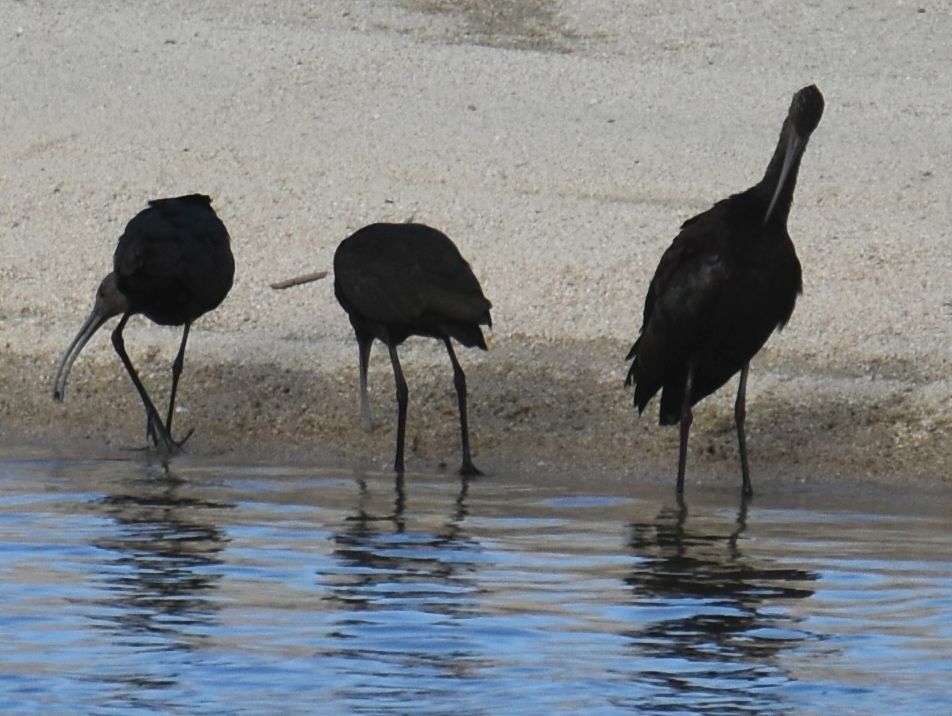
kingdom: Animalia
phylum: Chordata
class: Aves
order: Pelecaniformes
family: Threskiornithidae
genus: Plegadis
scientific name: Plegadis chihi
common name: White-faced ibis
